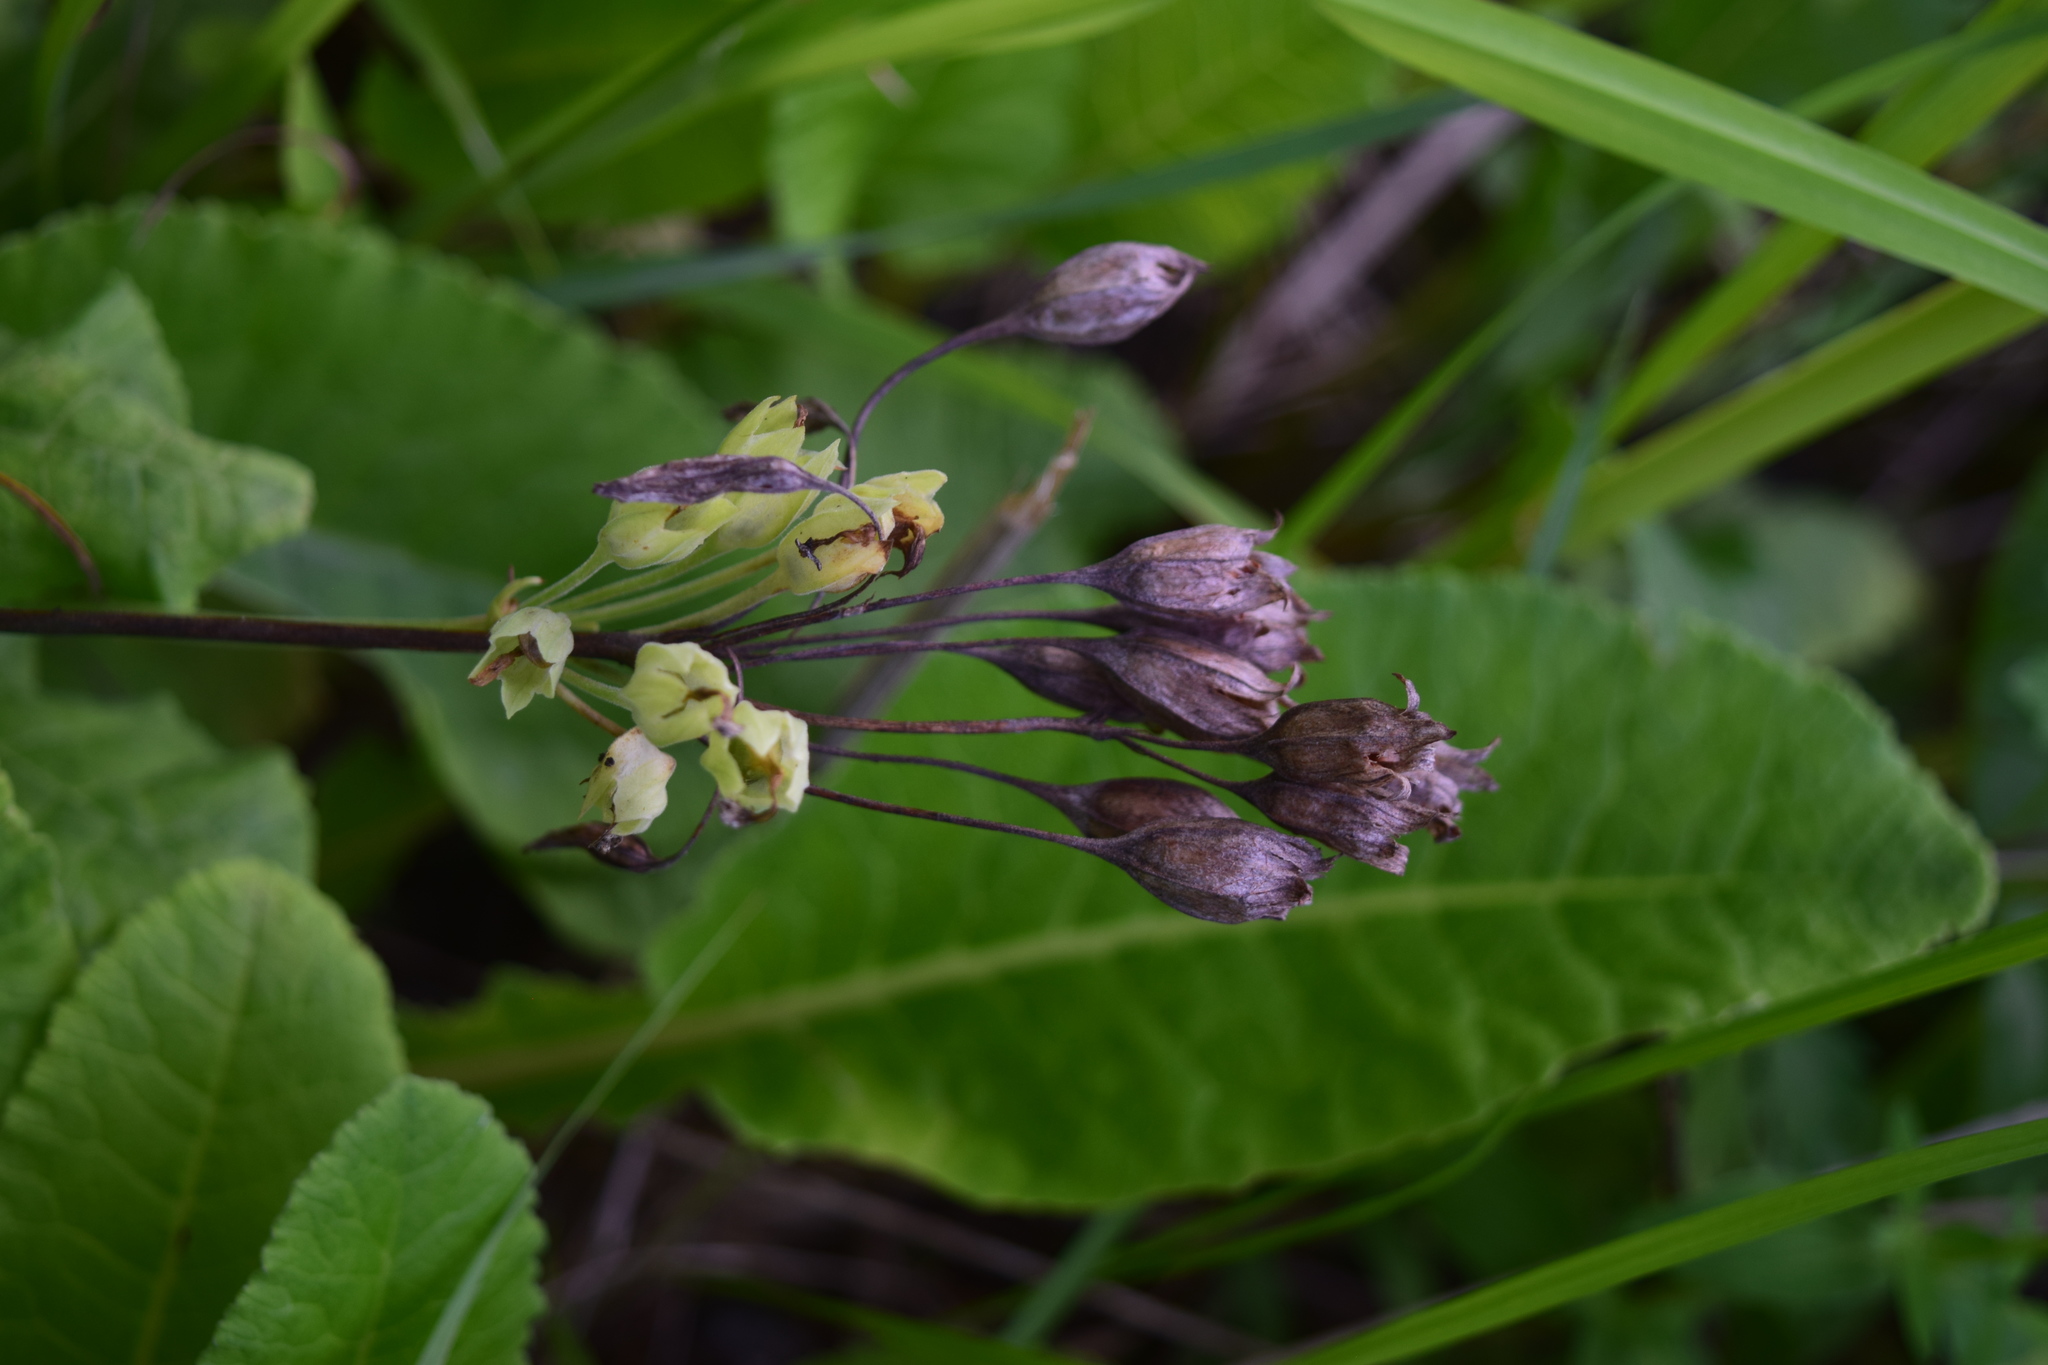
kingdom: Plantae
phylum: Tracheophyta
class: Magnoliopsida
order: Ericales
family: Primulaceae
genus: Primula
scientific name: Primula veris
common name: Cowslip
